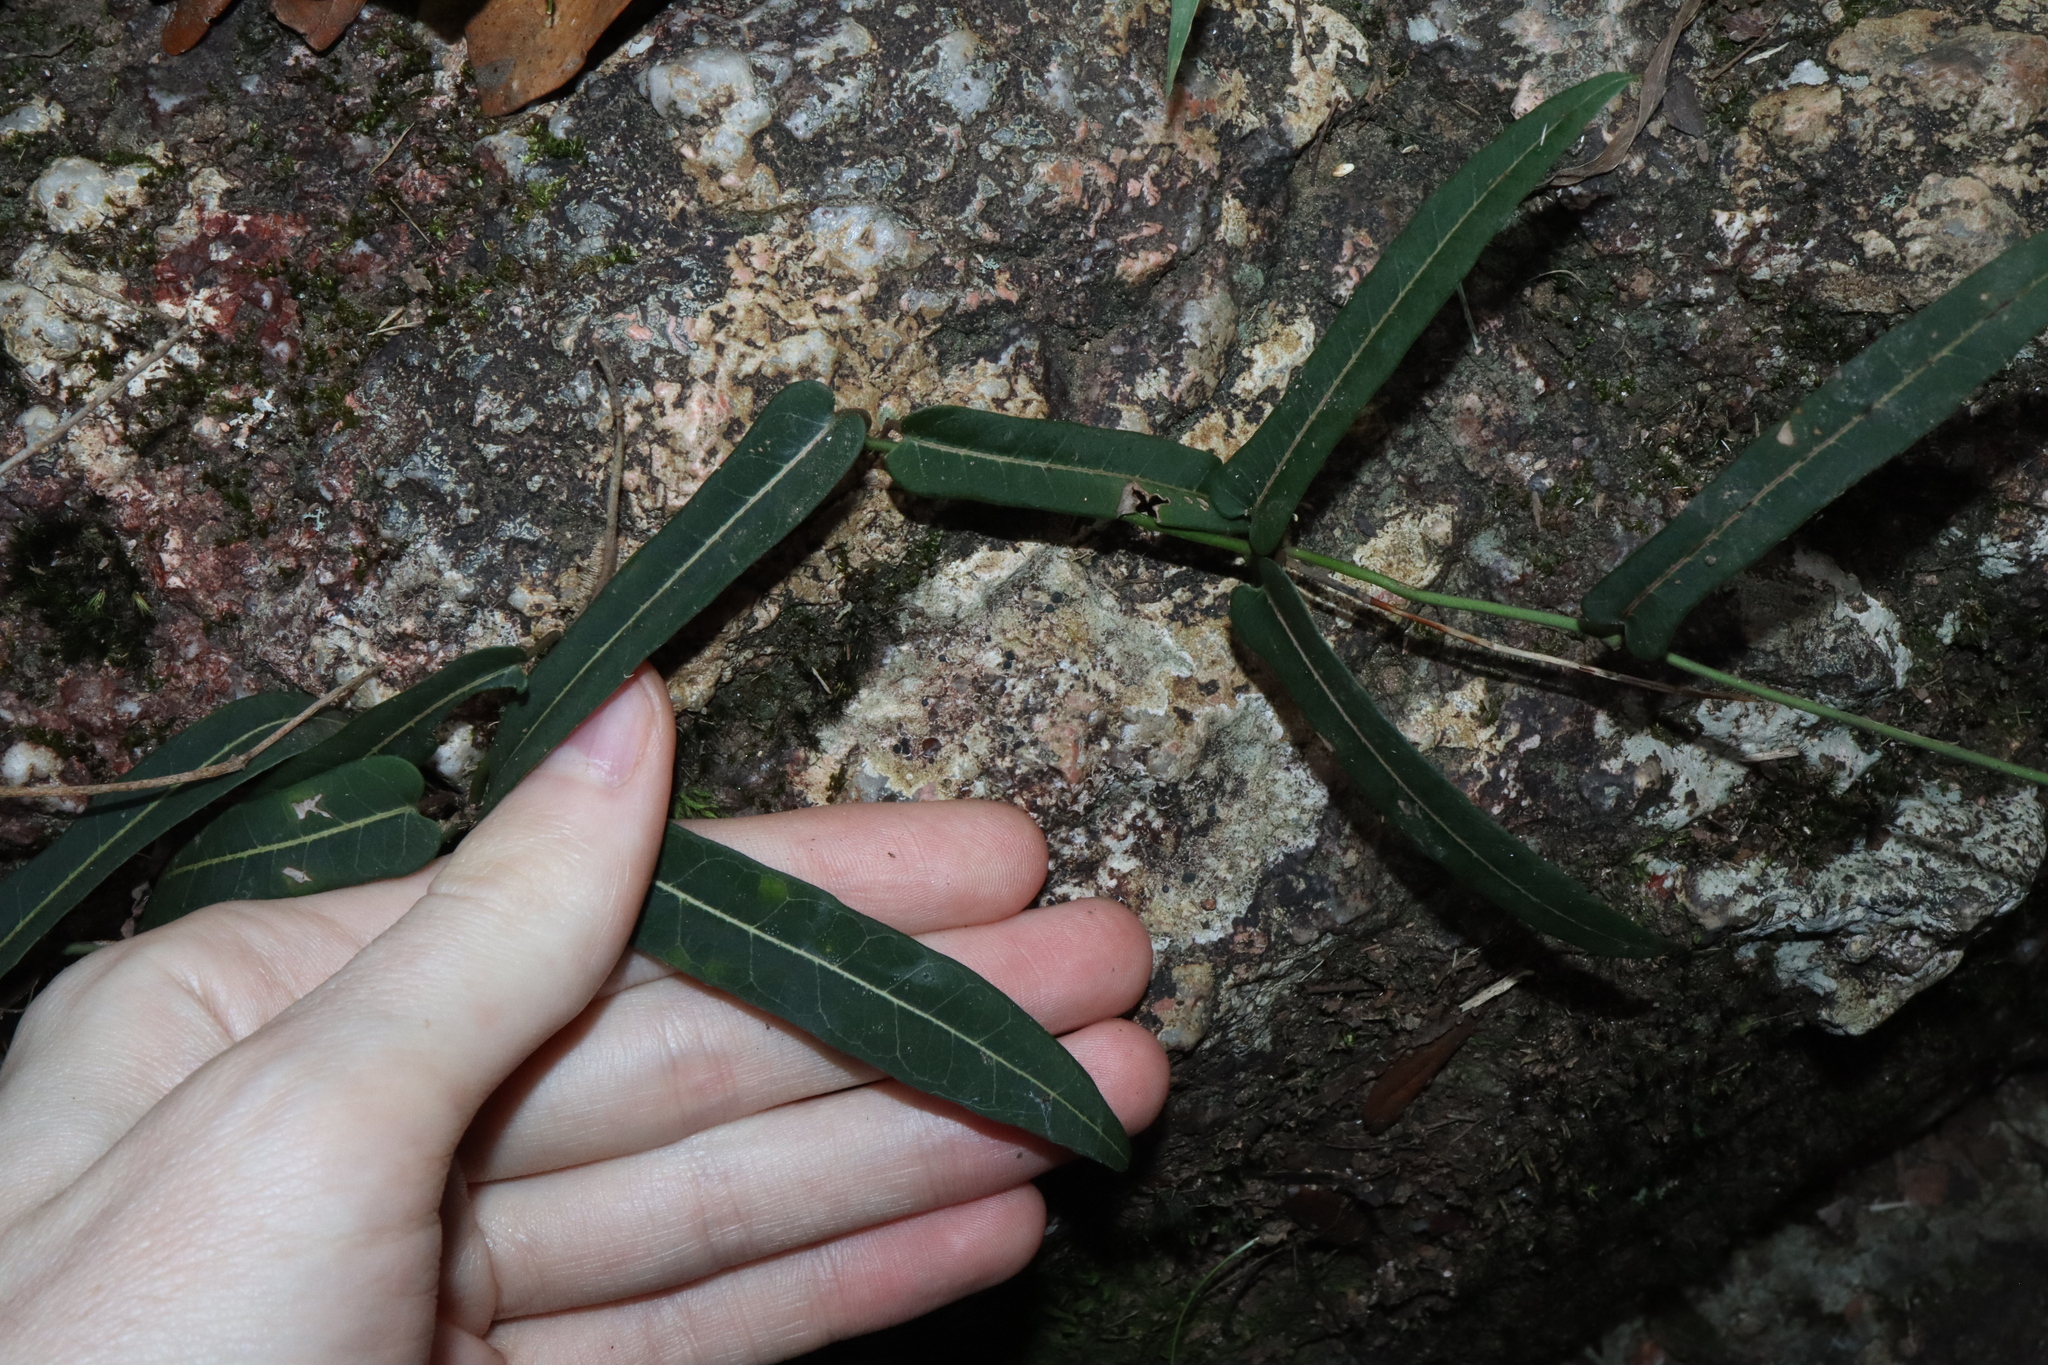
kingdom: Plantae
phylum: Tracheophyta
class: Magnoliopsida
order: Gentianales
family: Apocynaceae
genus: Parsonsia
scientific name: Parsonsia straminea
